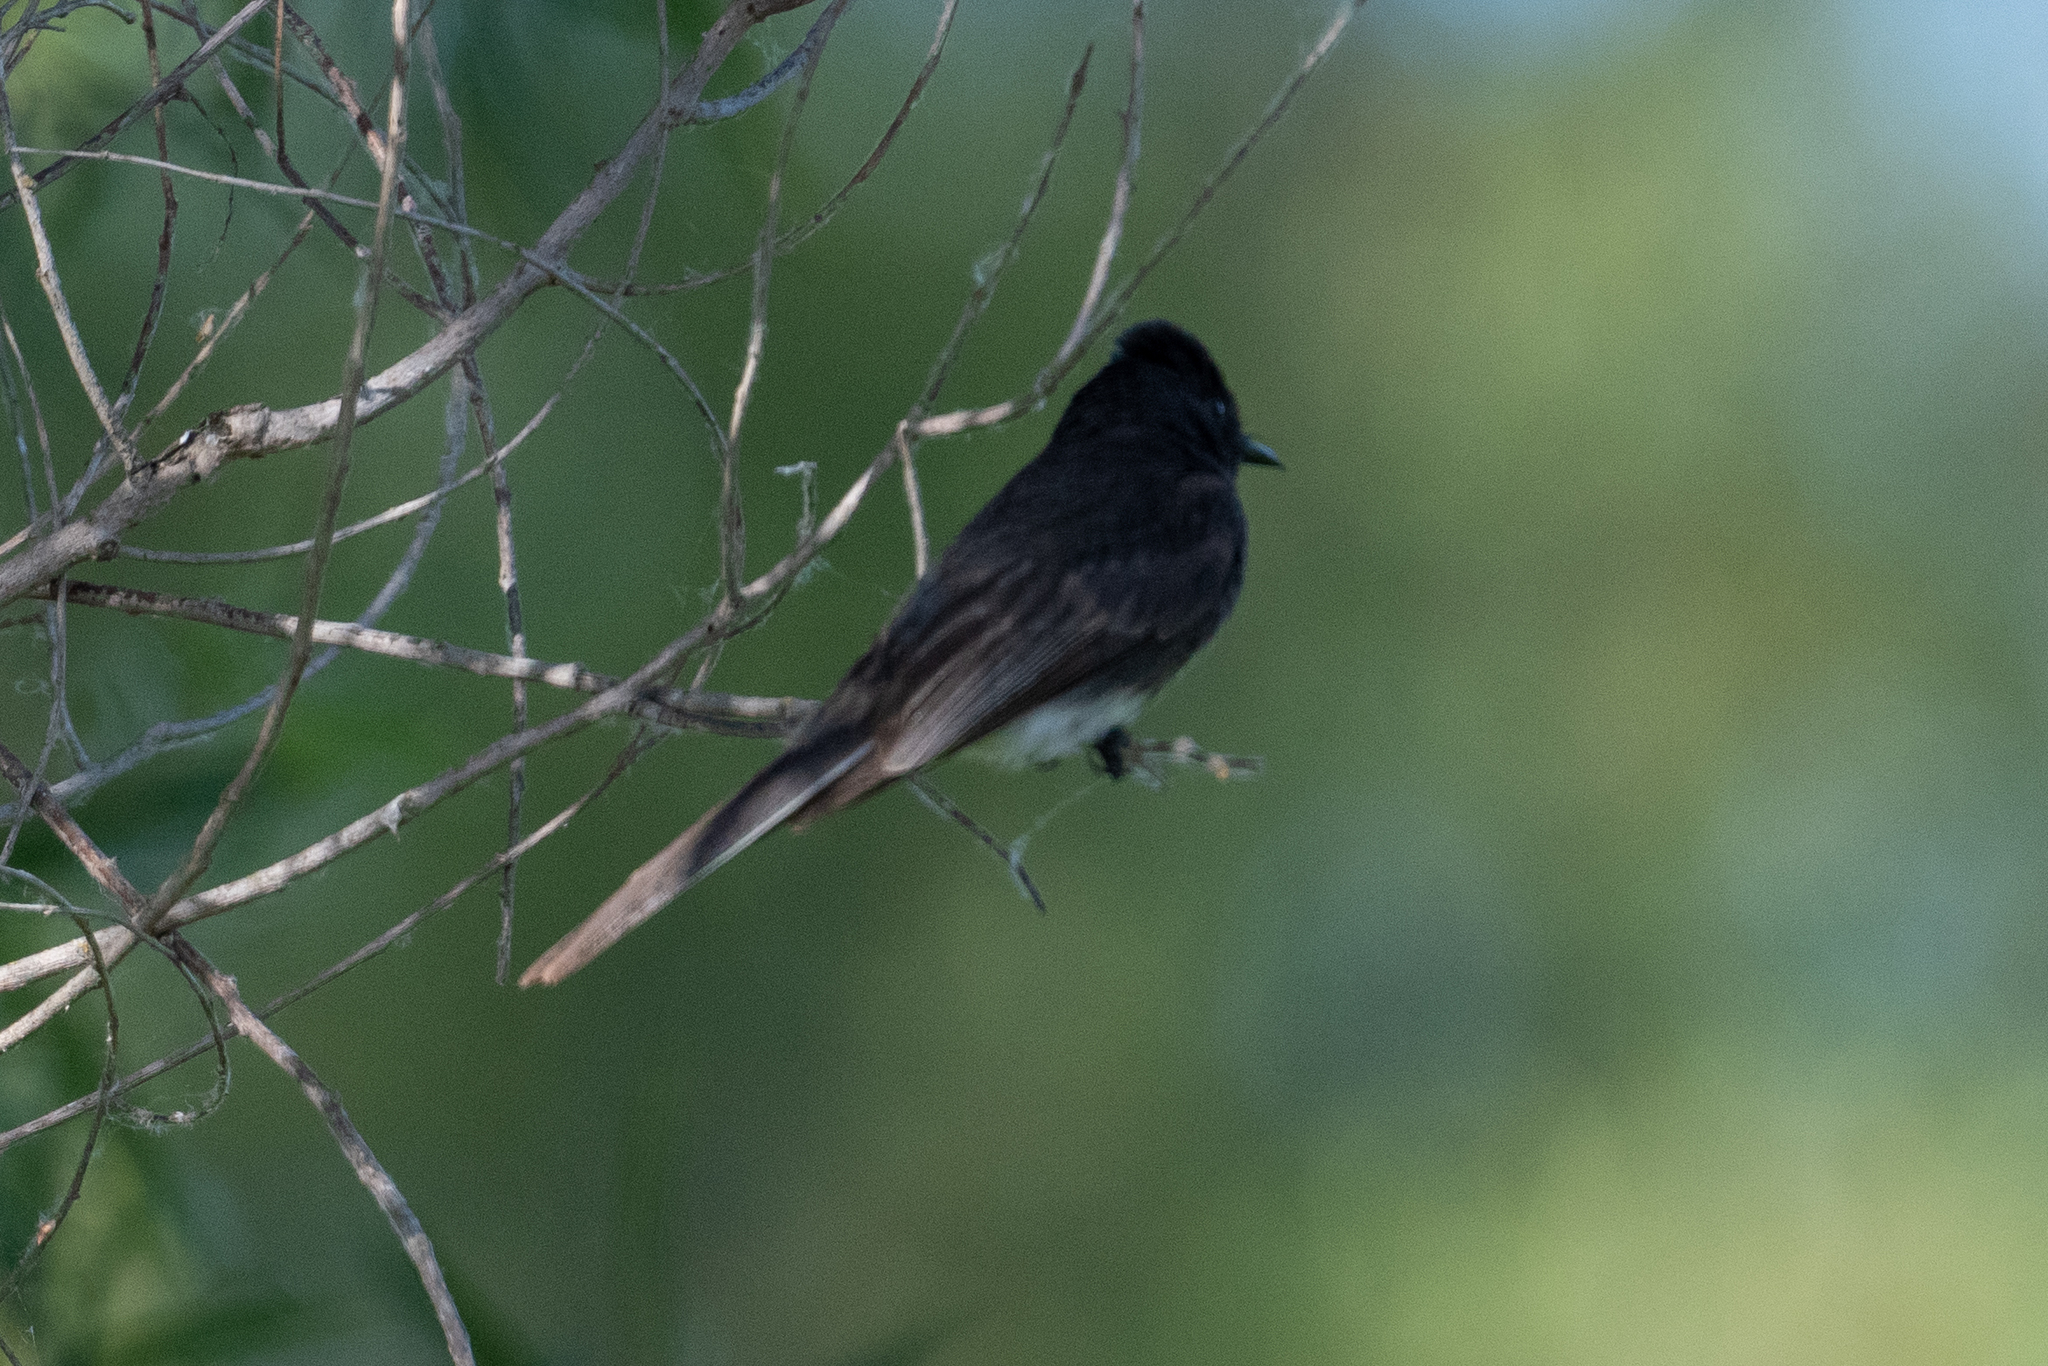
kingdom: Animalia
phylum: Chordata
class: Aves
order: Passeriformes
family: Tyrannidae
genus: Sayornis
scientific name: Sayornis nigricans
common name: Black phoebe
